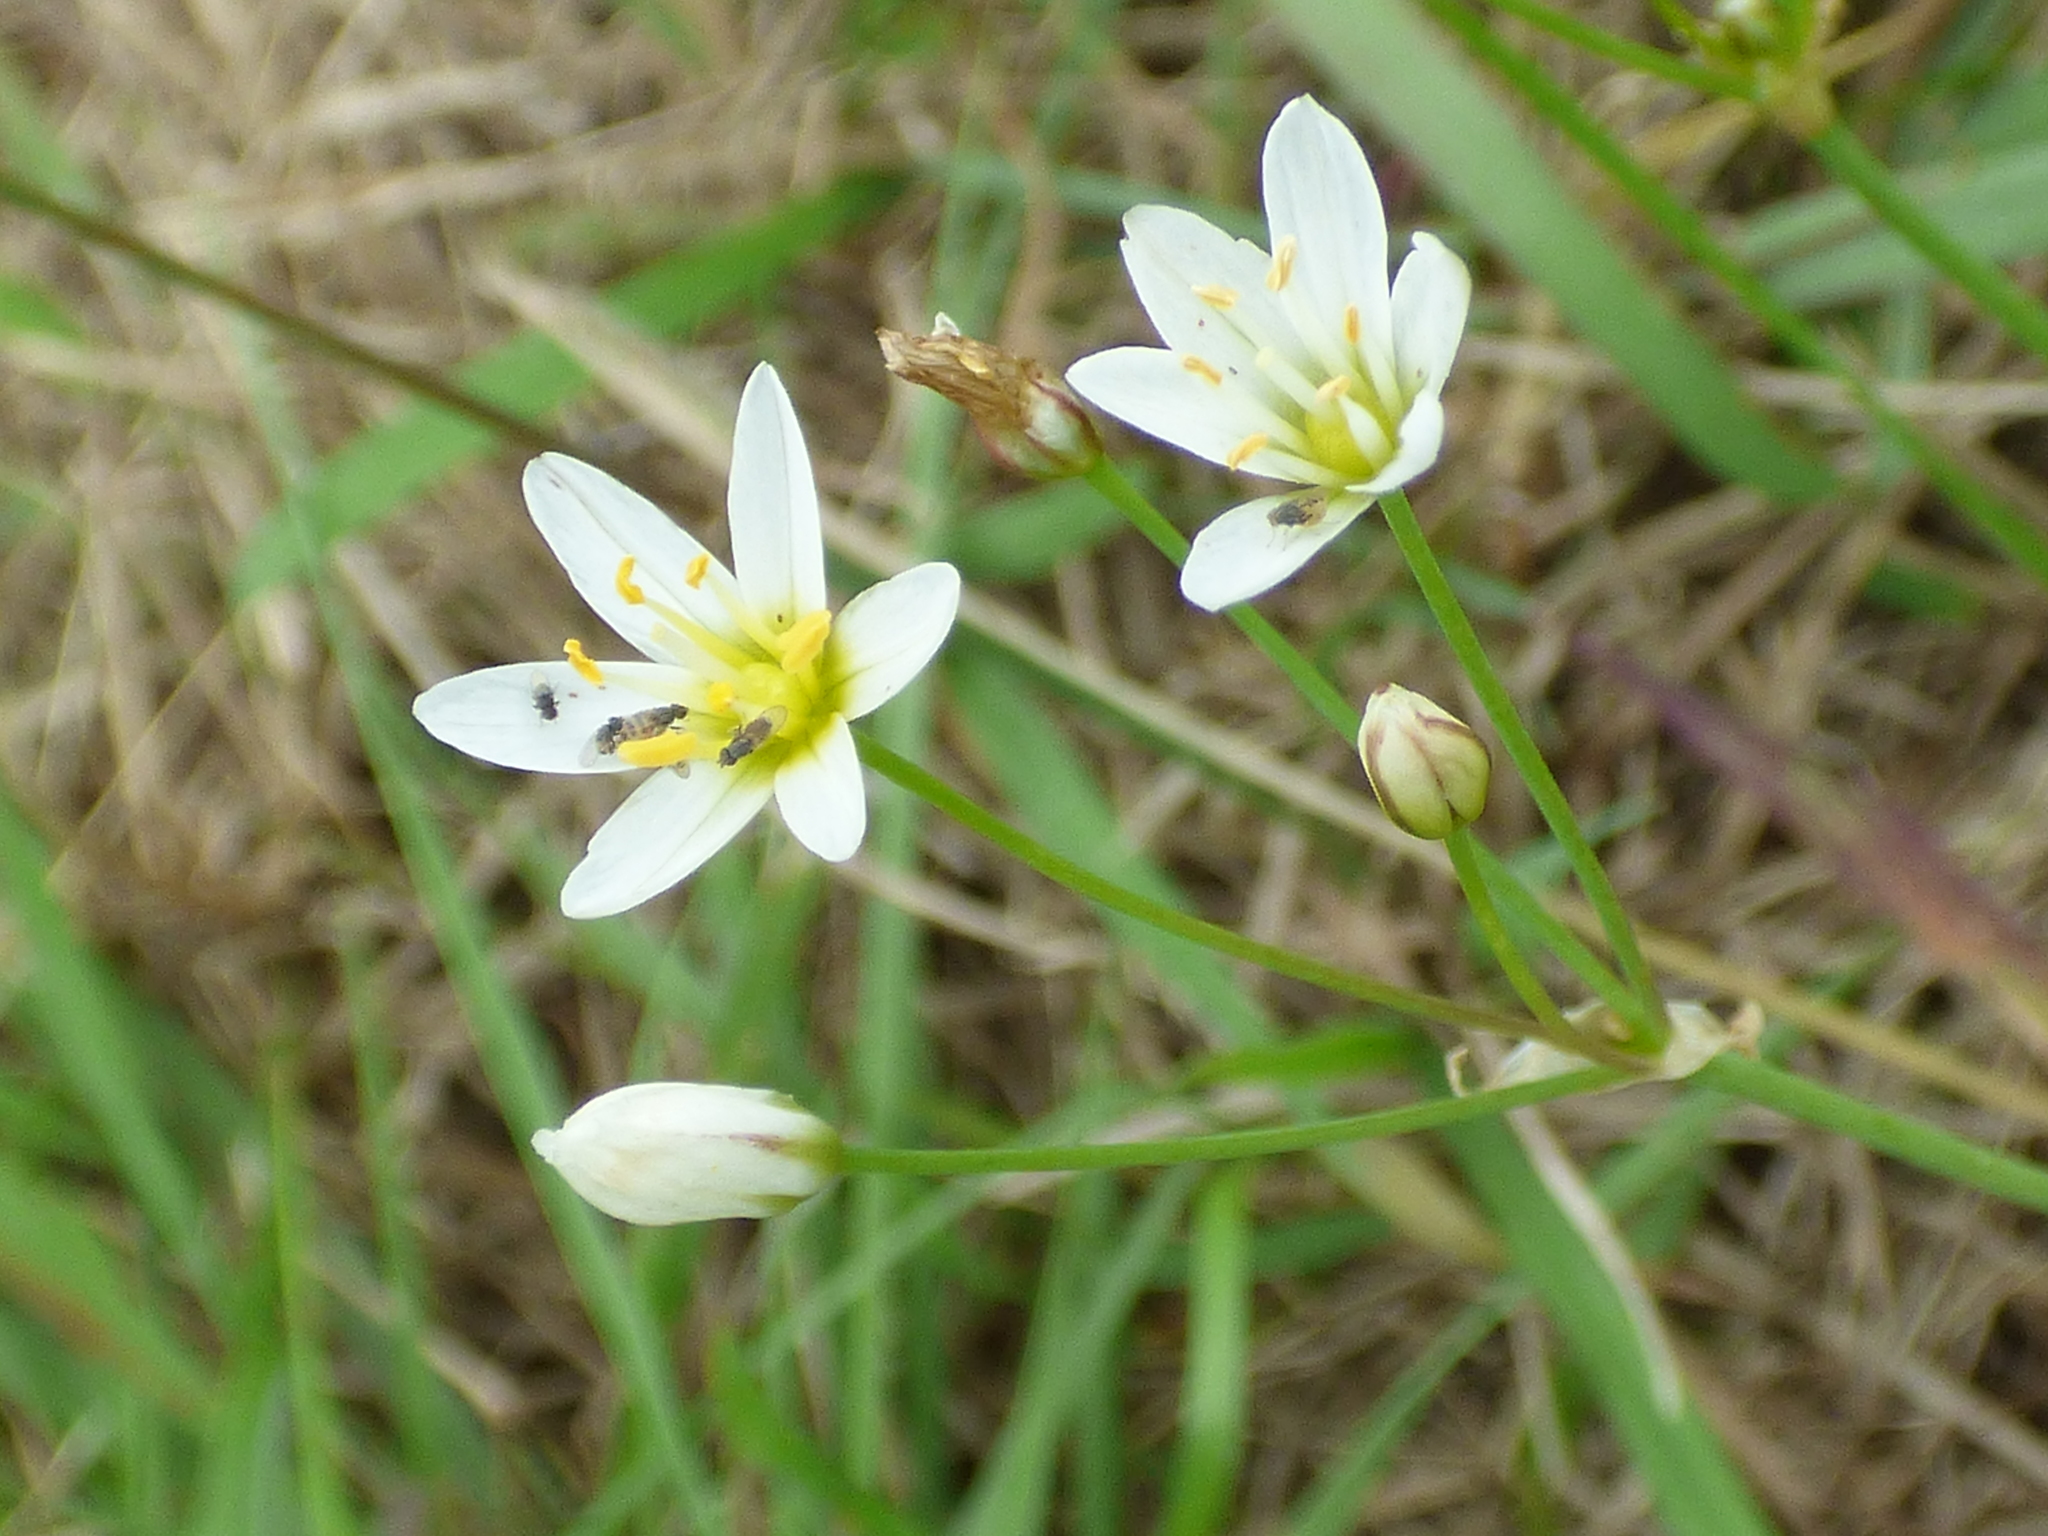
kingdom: Plantae
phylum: Tracheophyta
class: Liliopsida
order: Asparagales
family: Amaryllidaceae
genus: Nothoscordum
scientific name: Nothoscordum bivalve
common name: Crow-poison
